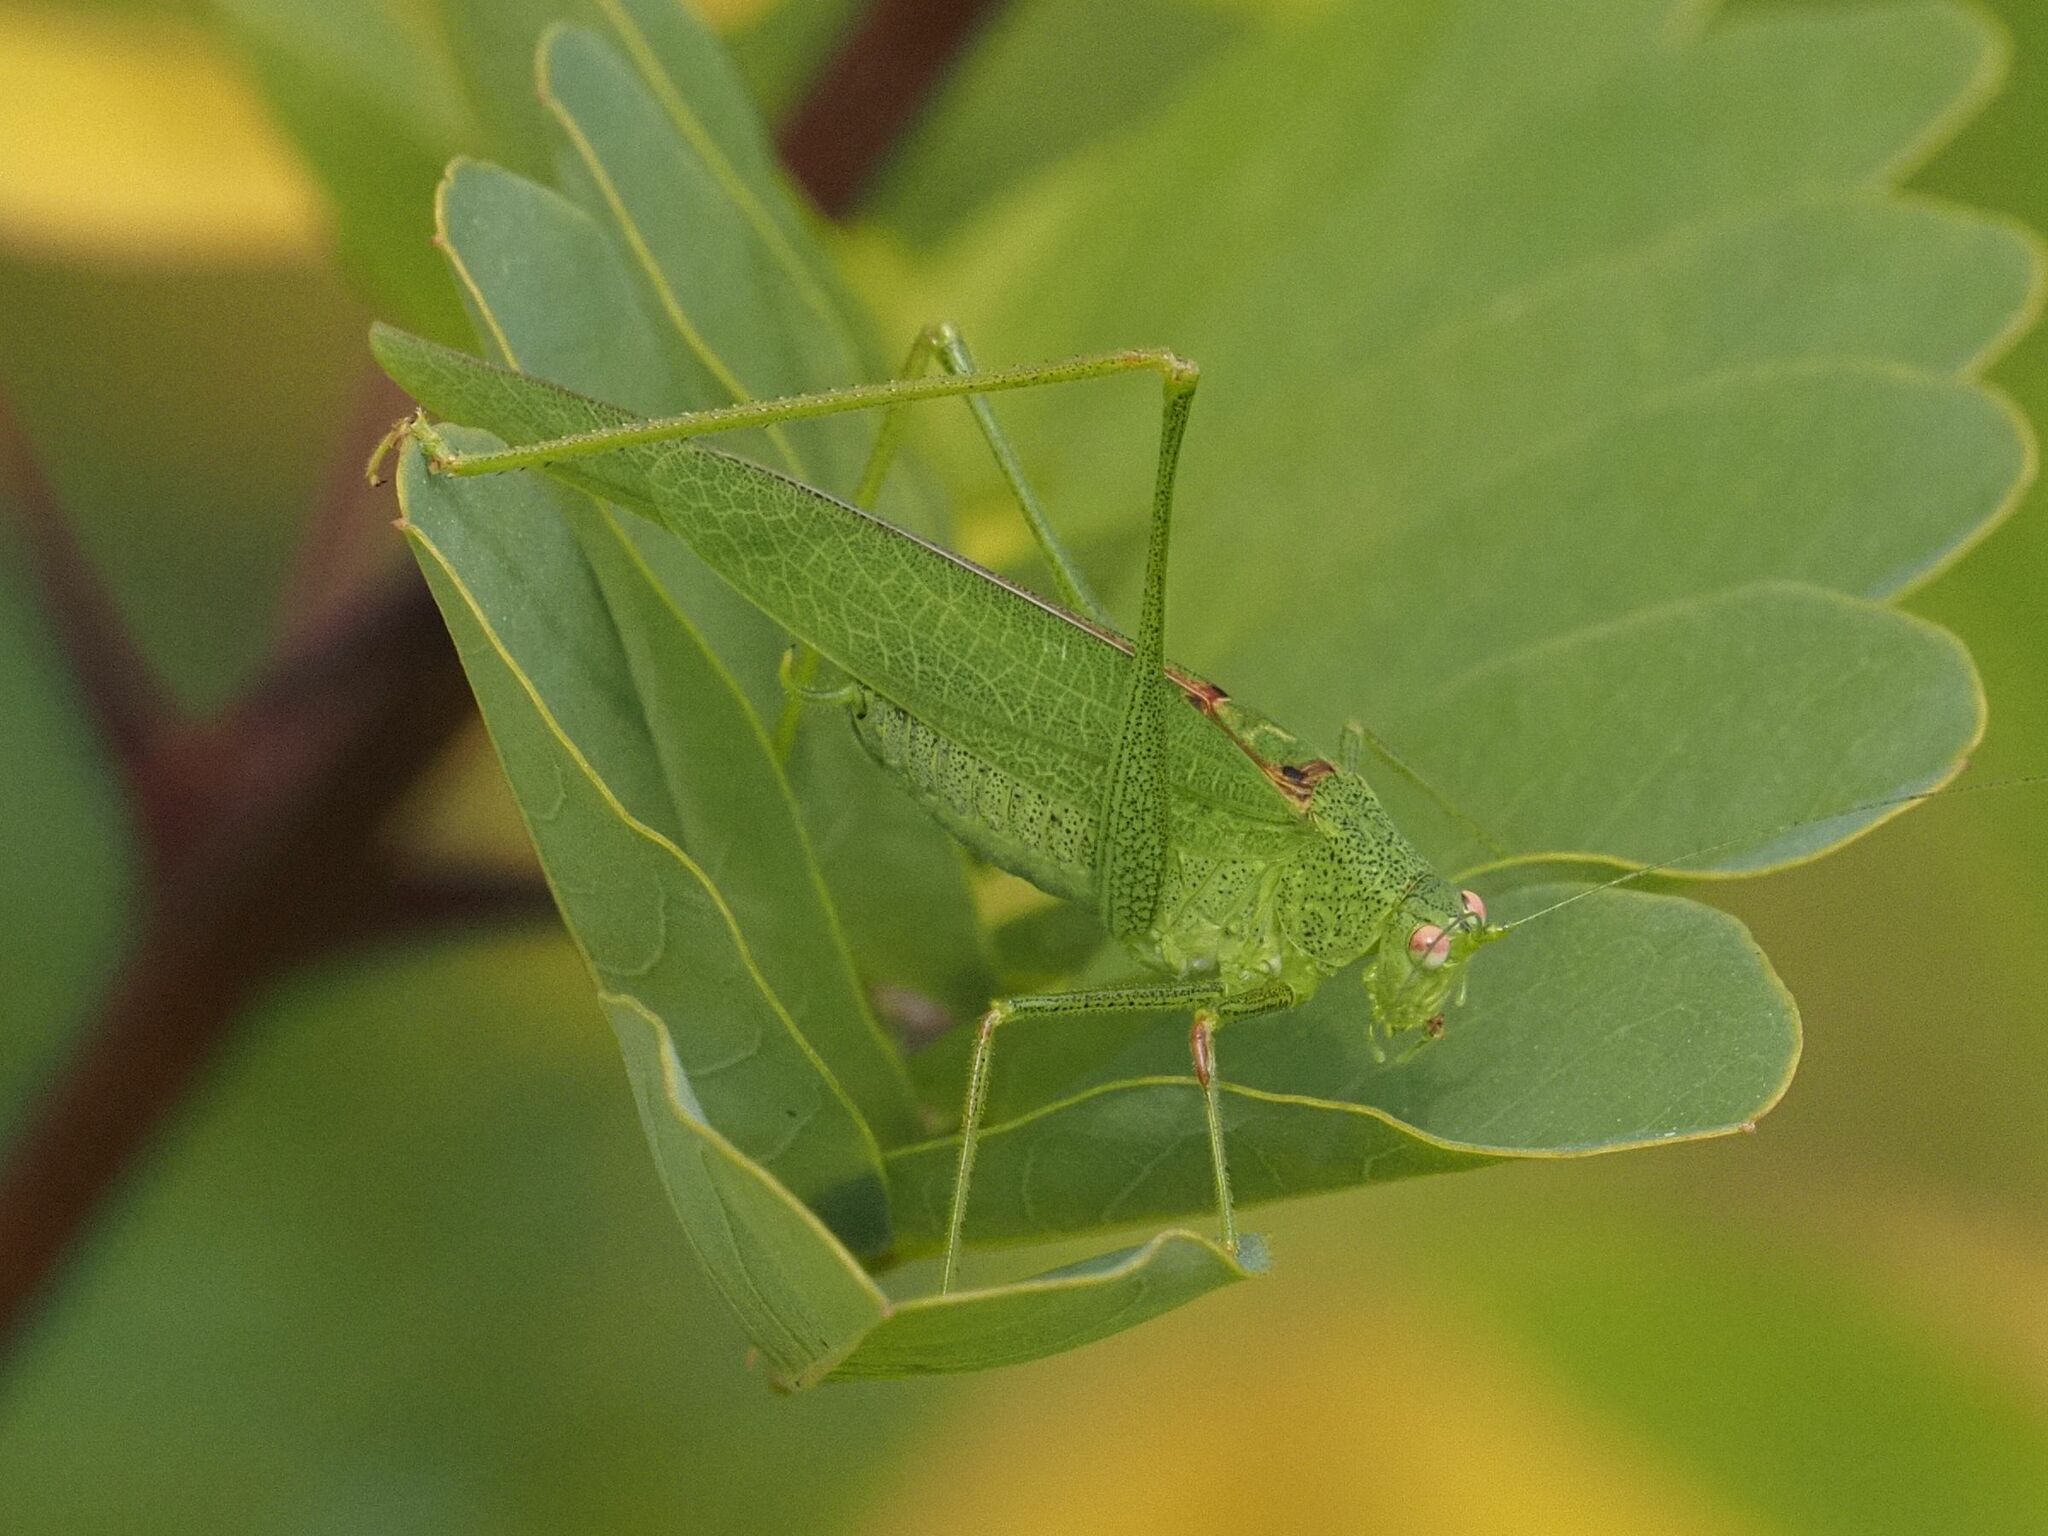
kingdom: Animalia
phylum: Arthropoda
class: Insecta
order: Orthoptera
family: Tettigoniidae
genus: Phaneroptera
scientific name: Phaneroptera nana
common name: Southern sickle bush-cricket
